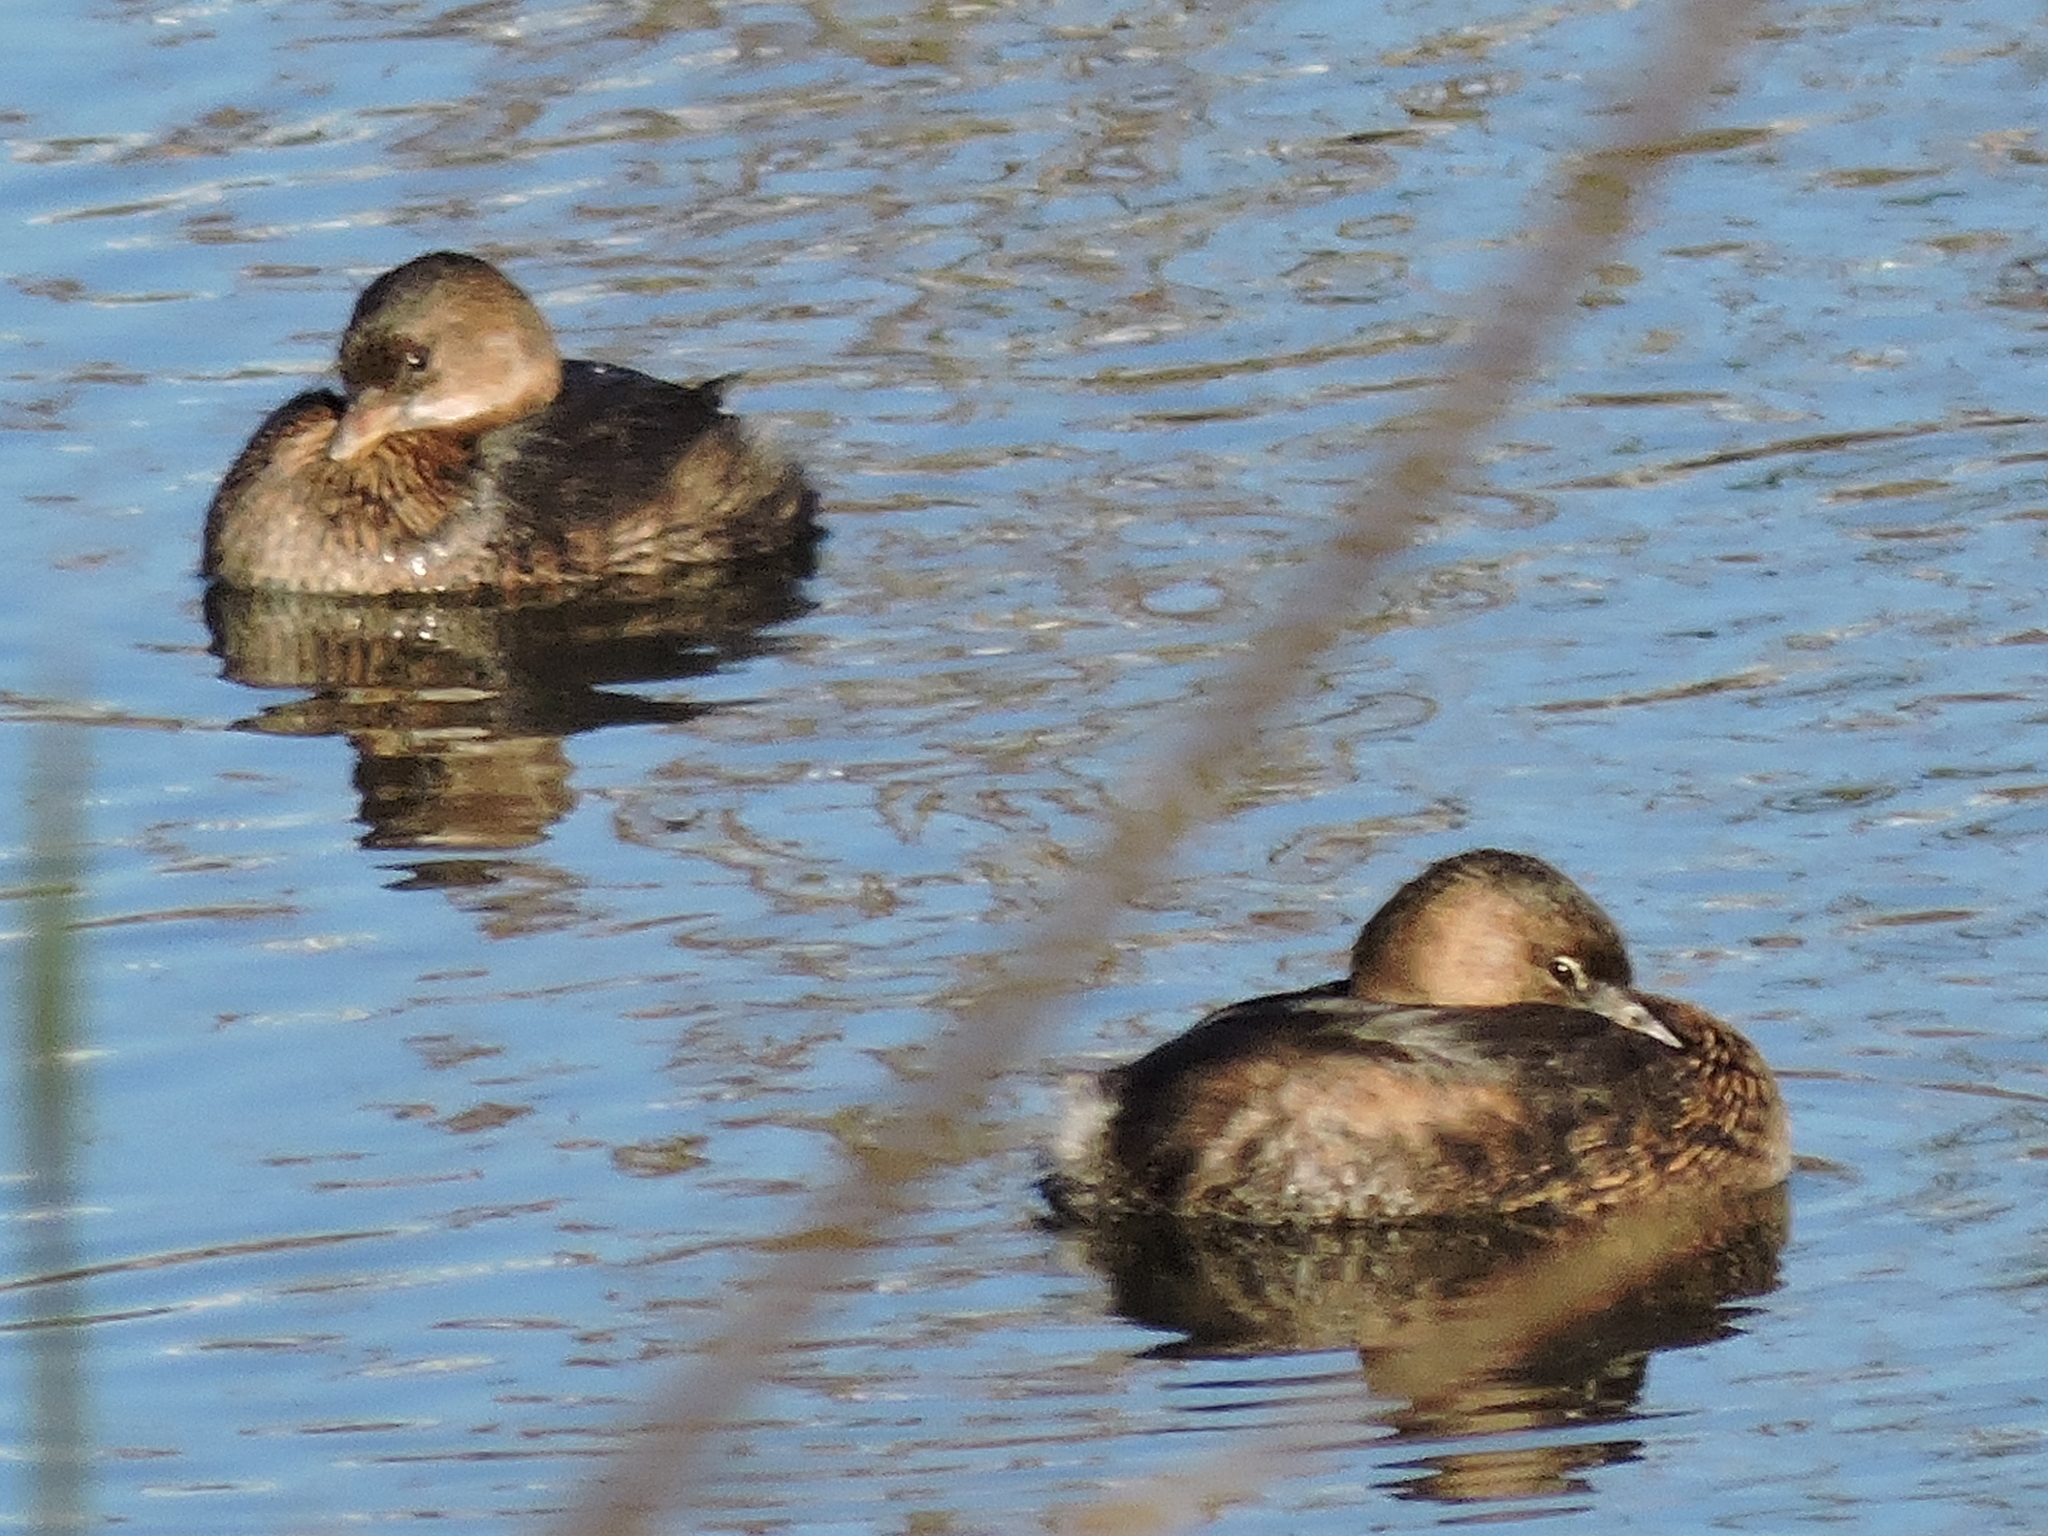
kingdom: Animalia
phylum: Chordata
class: Aves
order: Podicipediformes
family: Podicipedidae
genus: Podilymbus
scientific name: Podilymbus podiceps
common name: Pied-billed grebe
